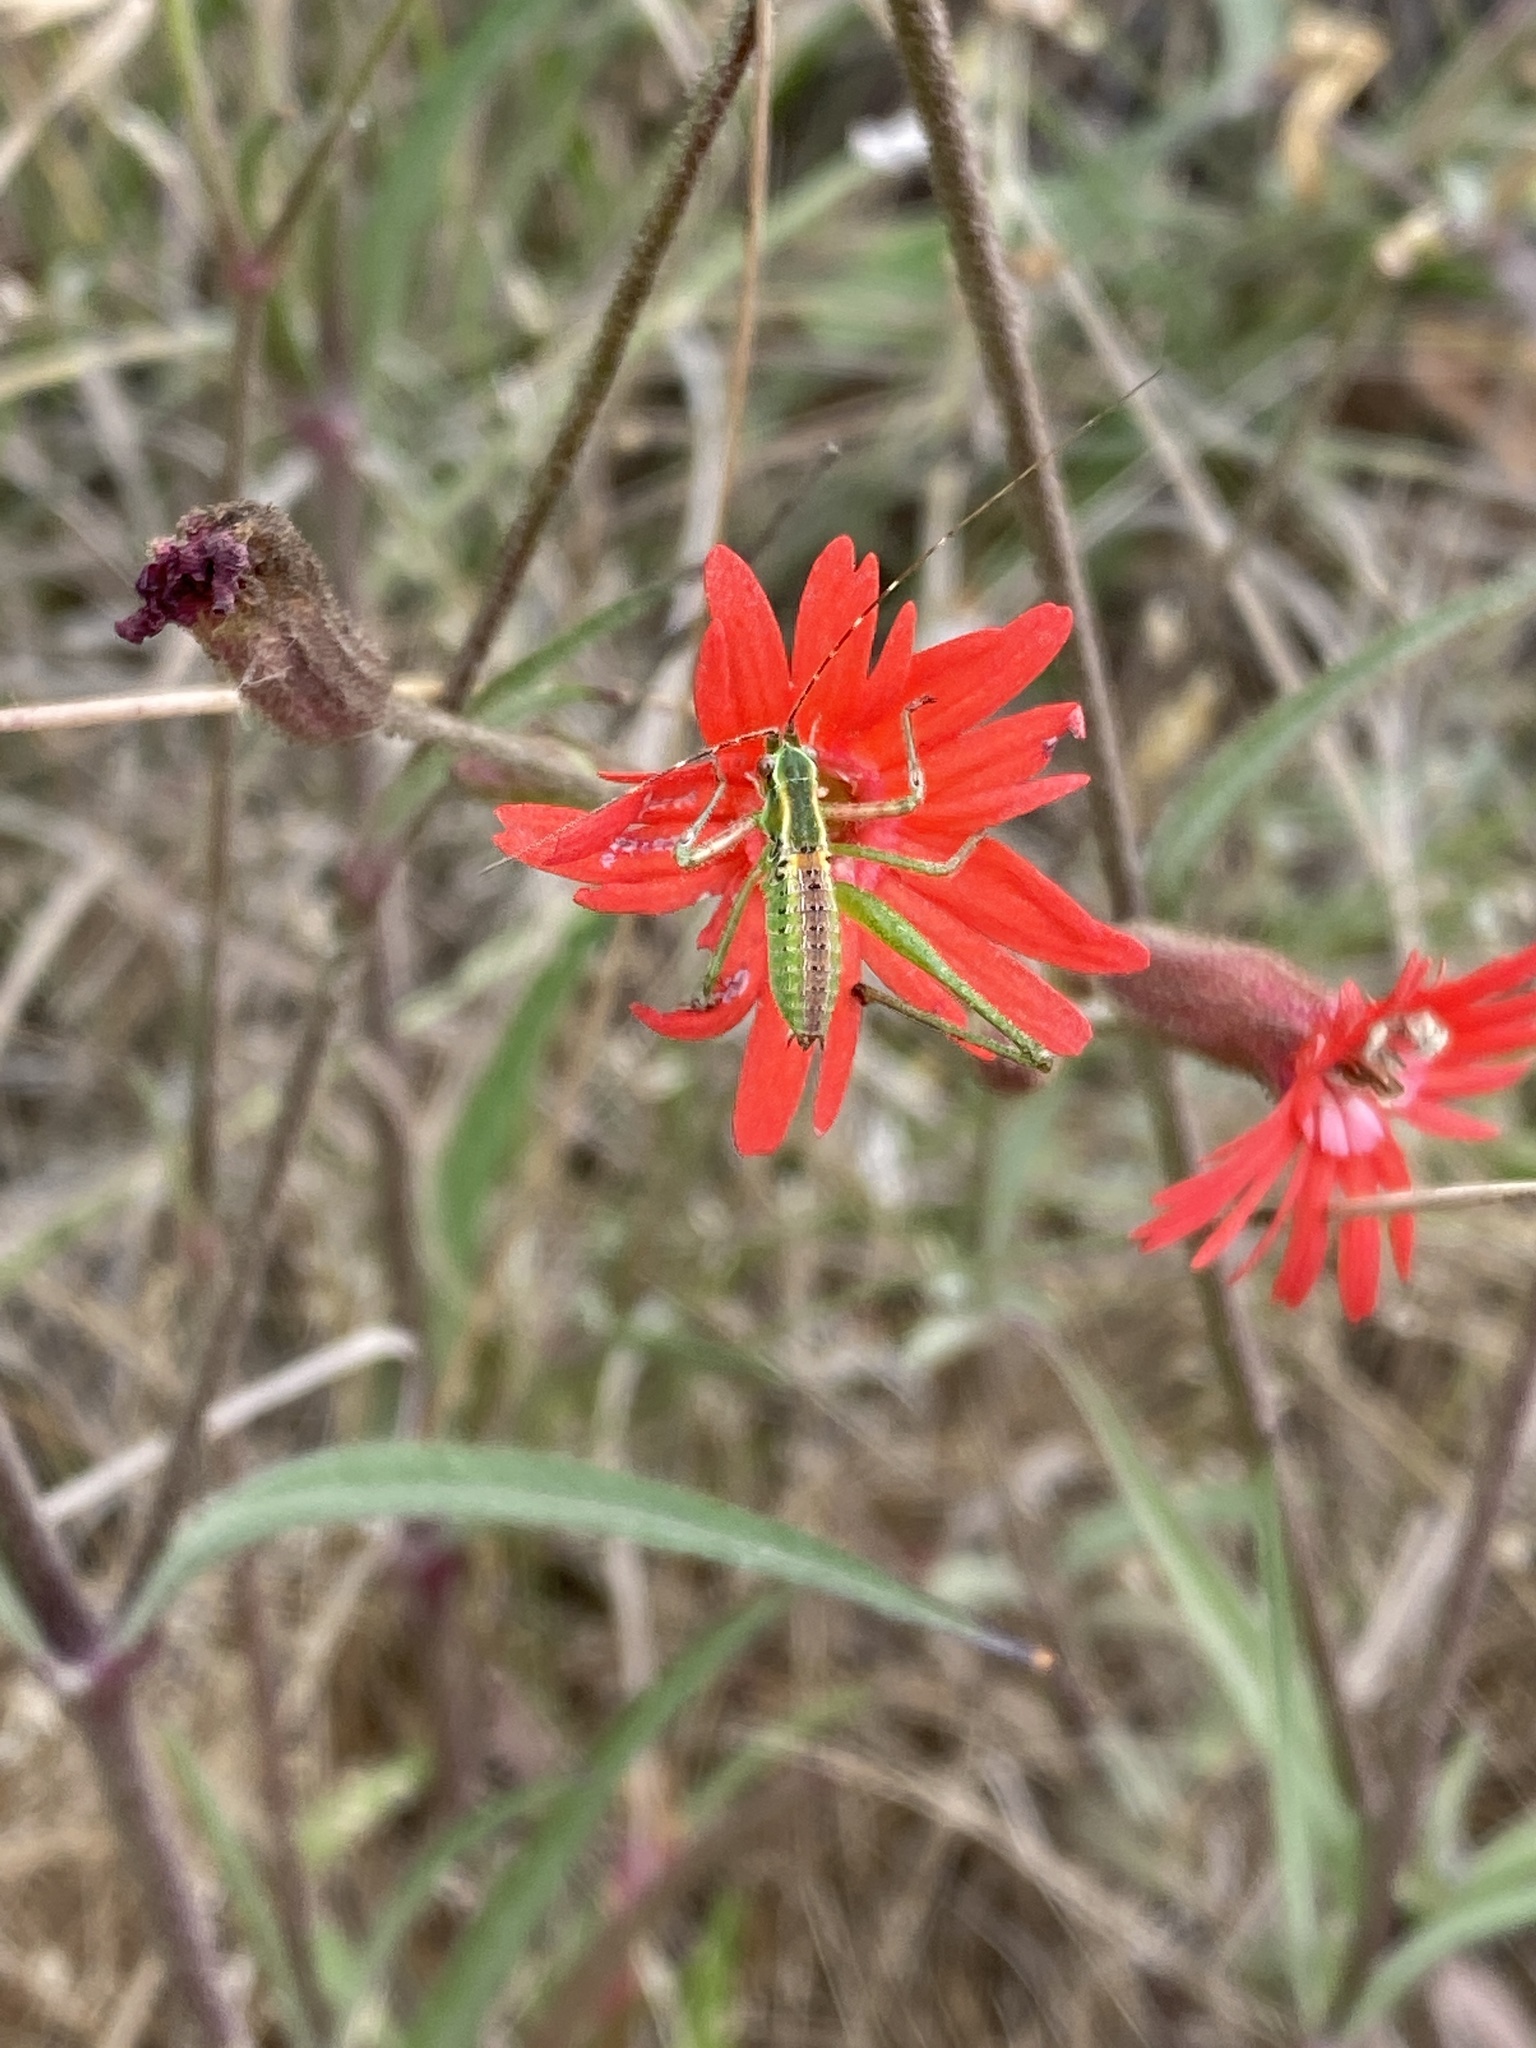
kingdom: Animalia
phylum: Arthropoda
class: Insecta
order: Orthoptera
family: Tettigoniidae
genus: Scudderia
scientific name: Scudderia
